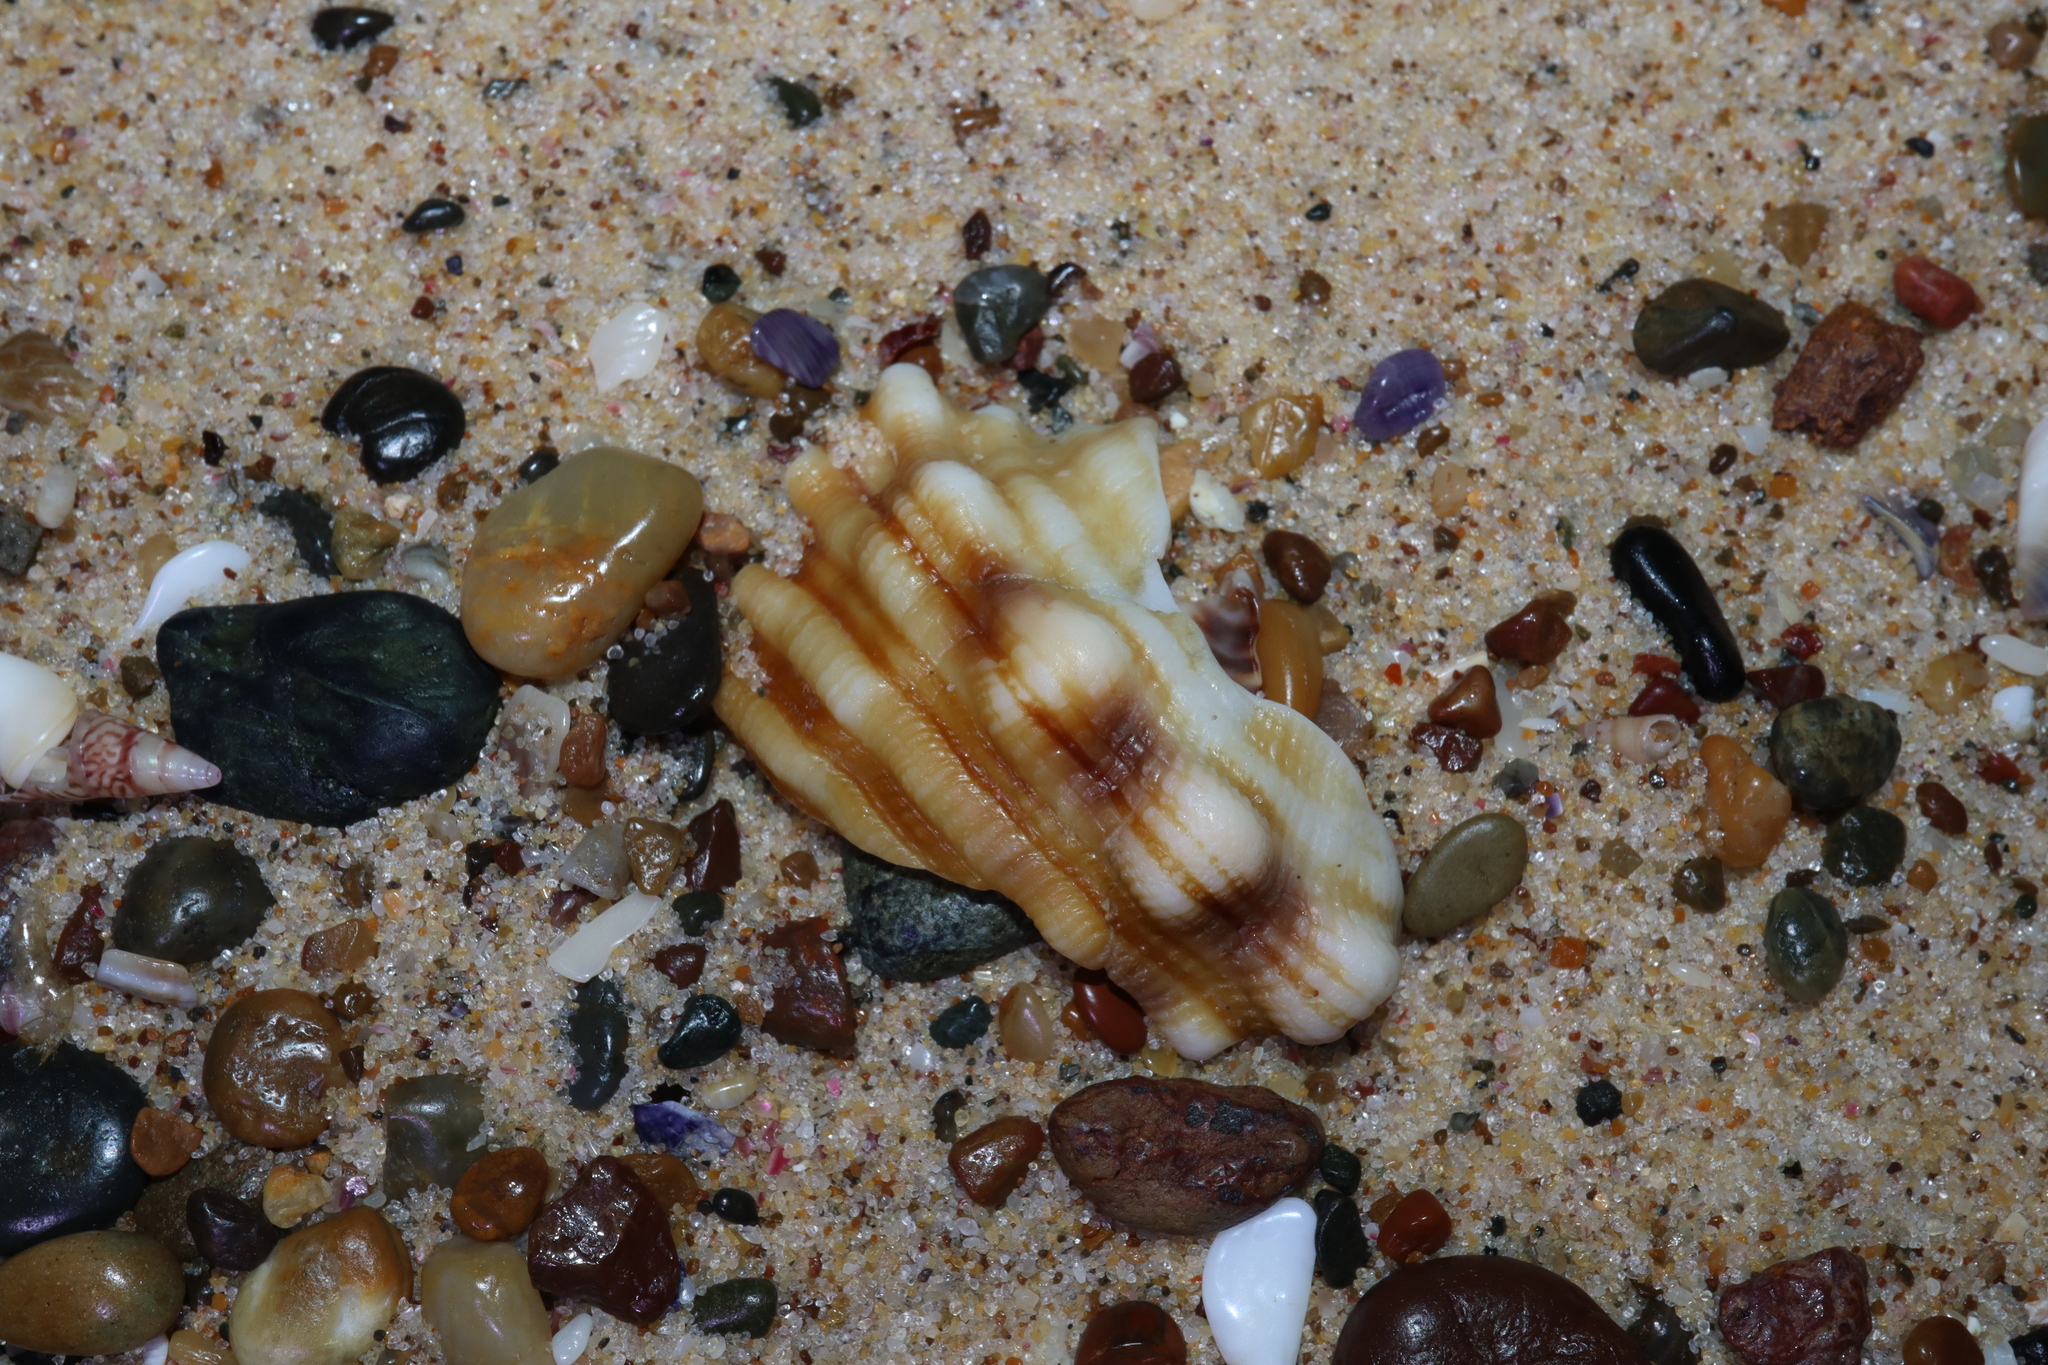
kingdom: Animalia
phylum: Mollusca
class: Gastropoda
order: Littorinimorpha
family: Cymatiidae
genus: Cabestana
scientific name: Cabestana spengleri
